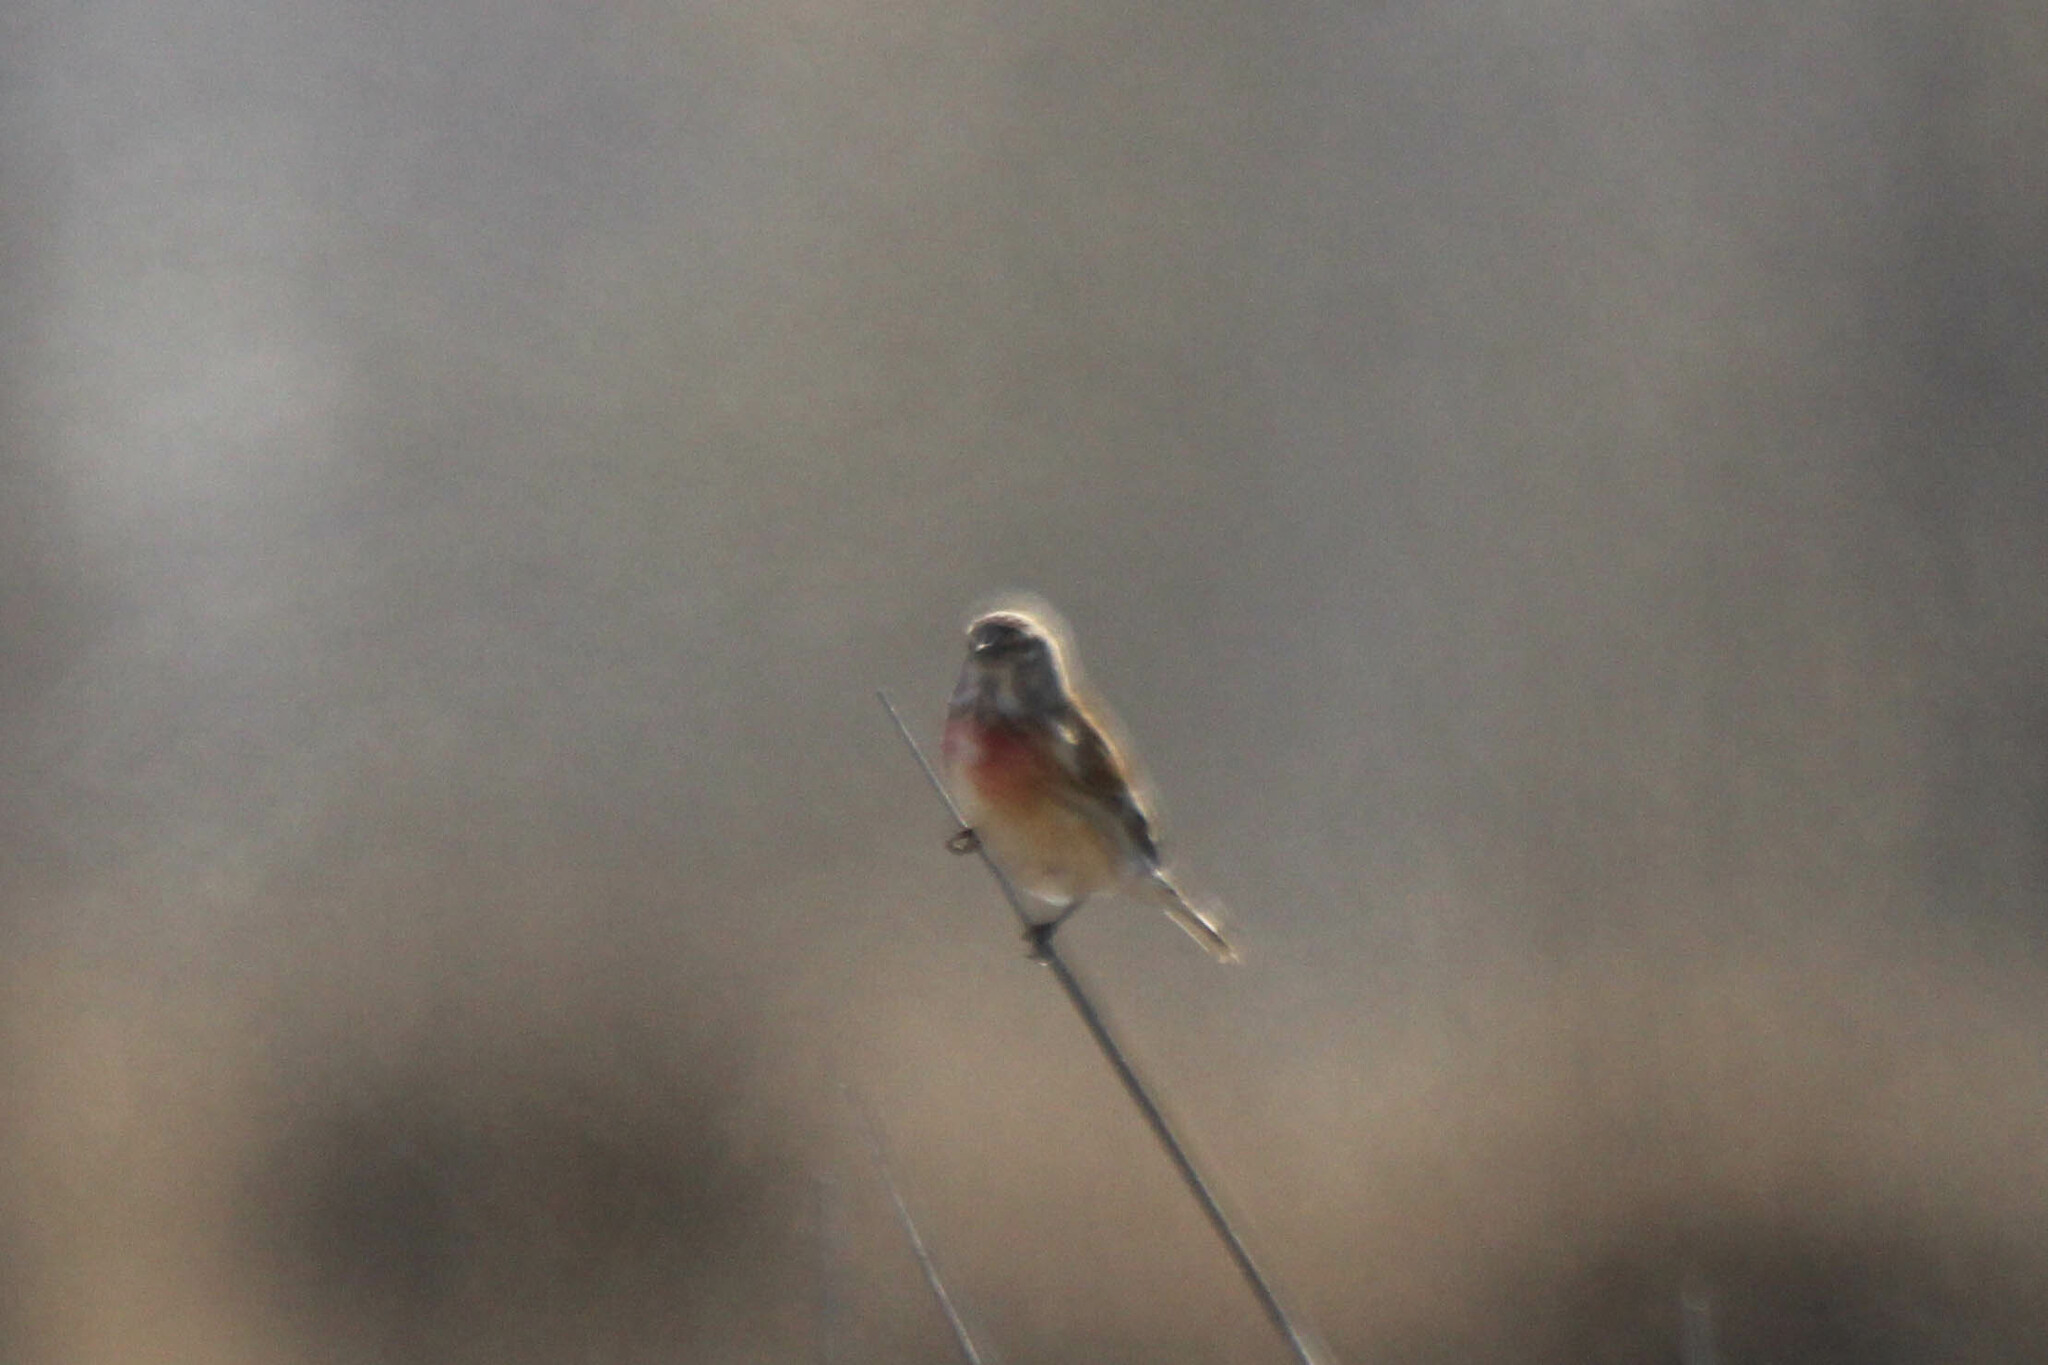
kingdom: Animalia
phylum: Chordata
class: Aves
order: Passeriformes
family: Fringillidae
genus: Linaria
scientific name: Linaria cannabina
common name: Common linnet
